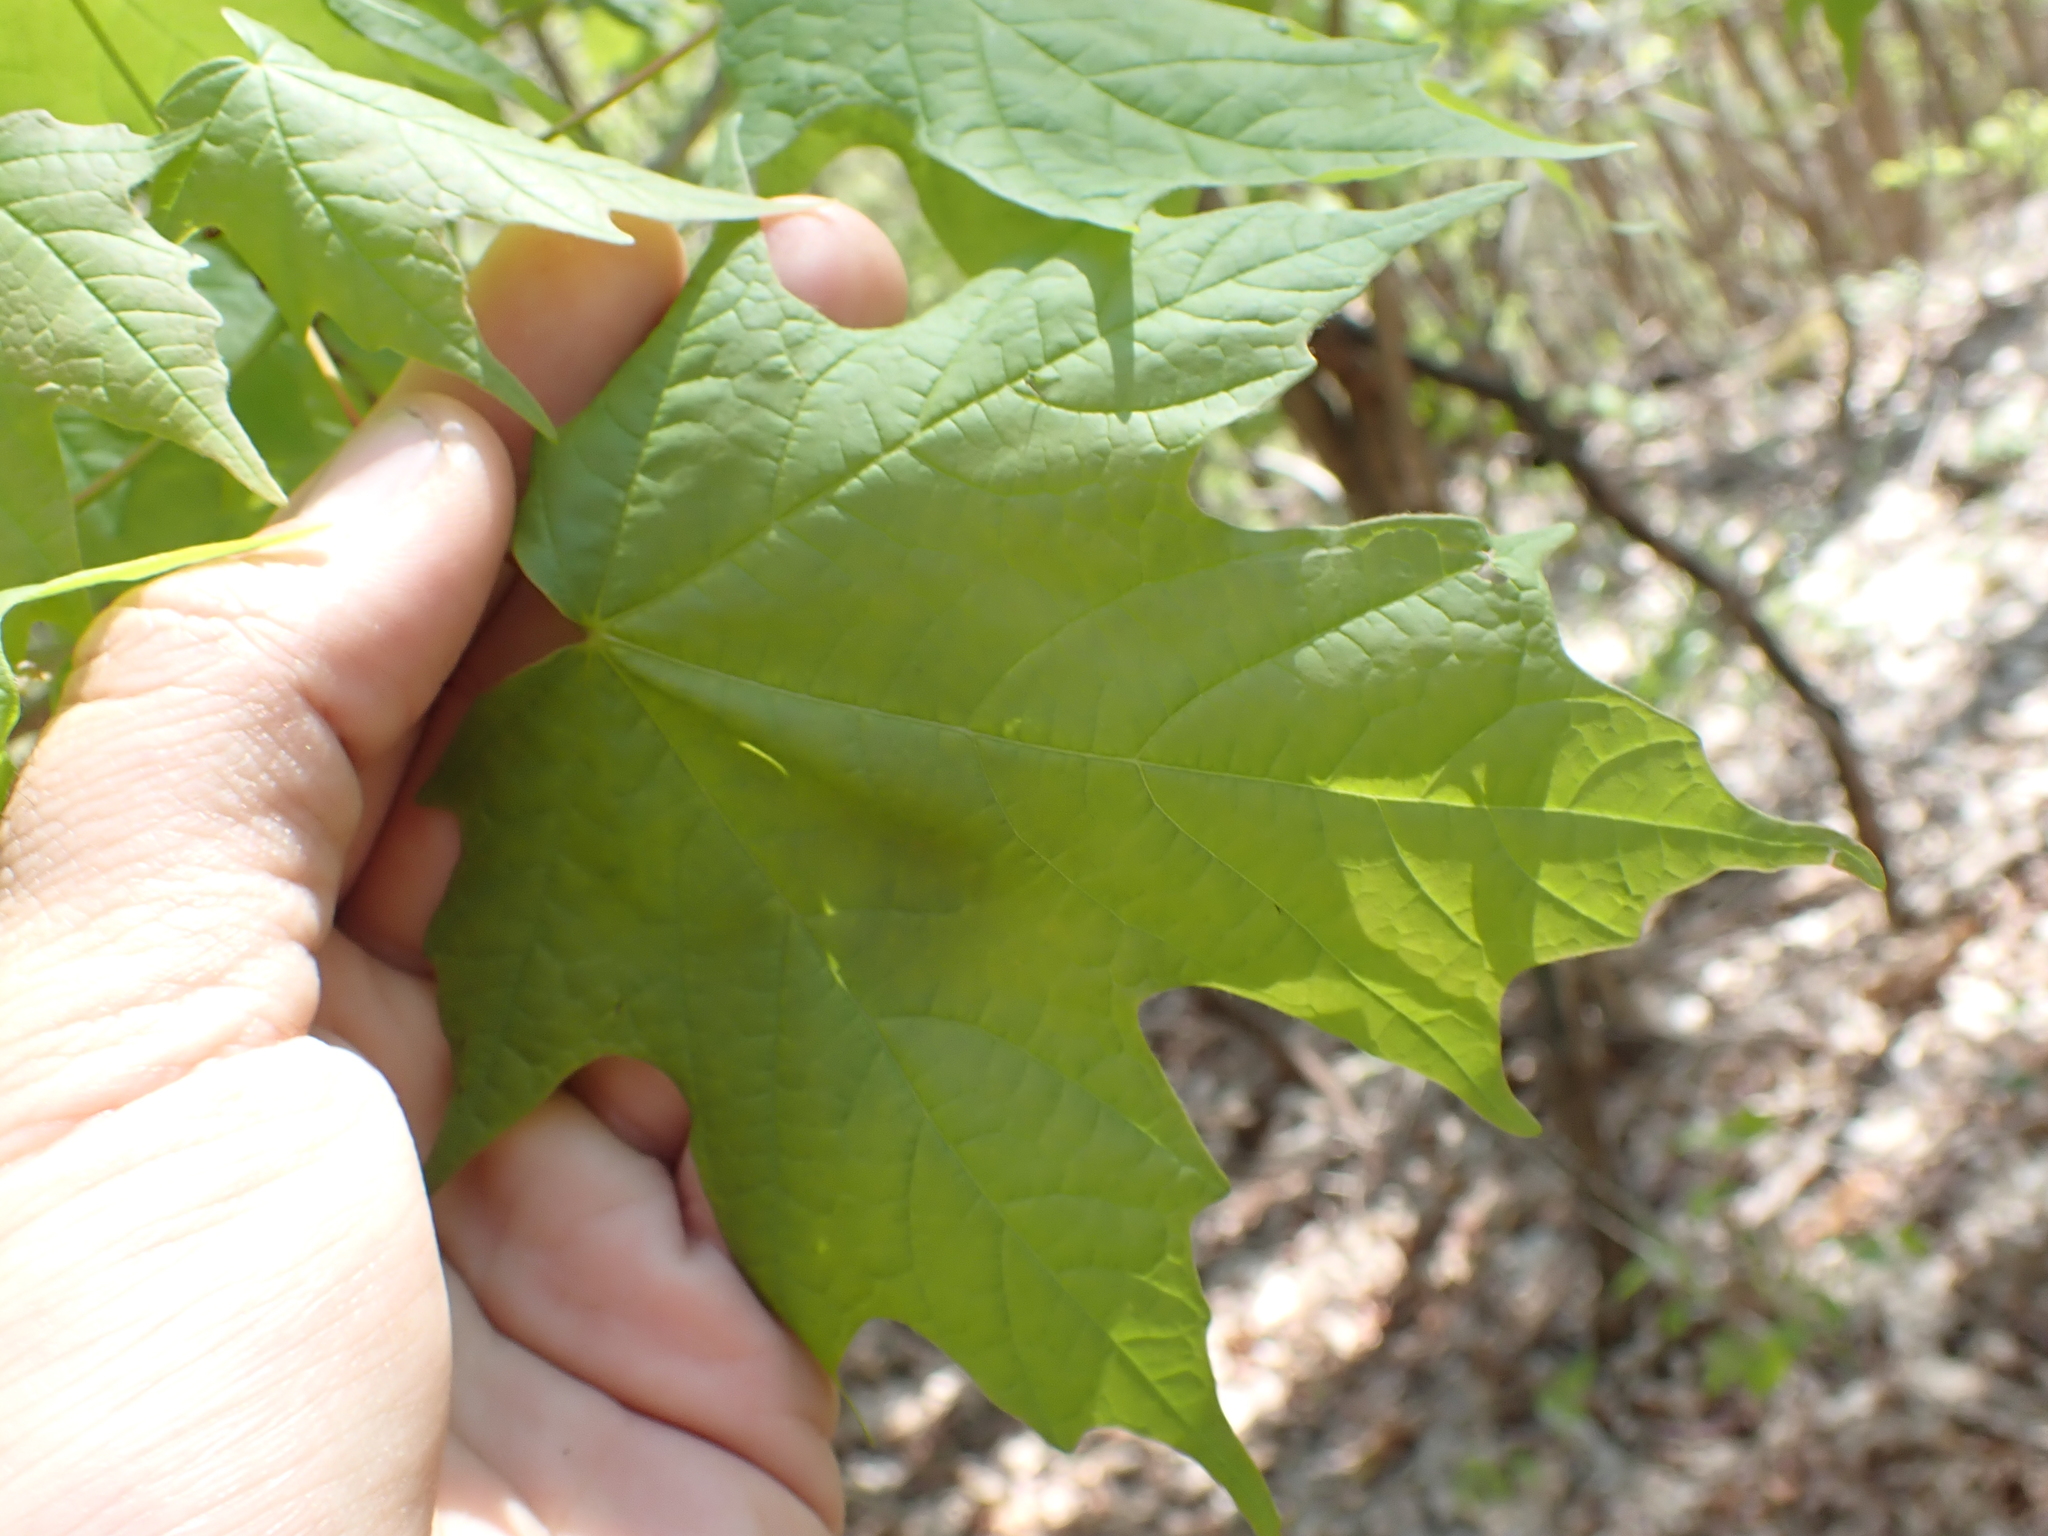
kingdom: Plantae
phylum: Tracheophyta
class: Magnoliopsida
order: Sapindales
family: Sapindaceae
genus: Acer
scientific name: Acer saccharum
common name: Sugar maple
